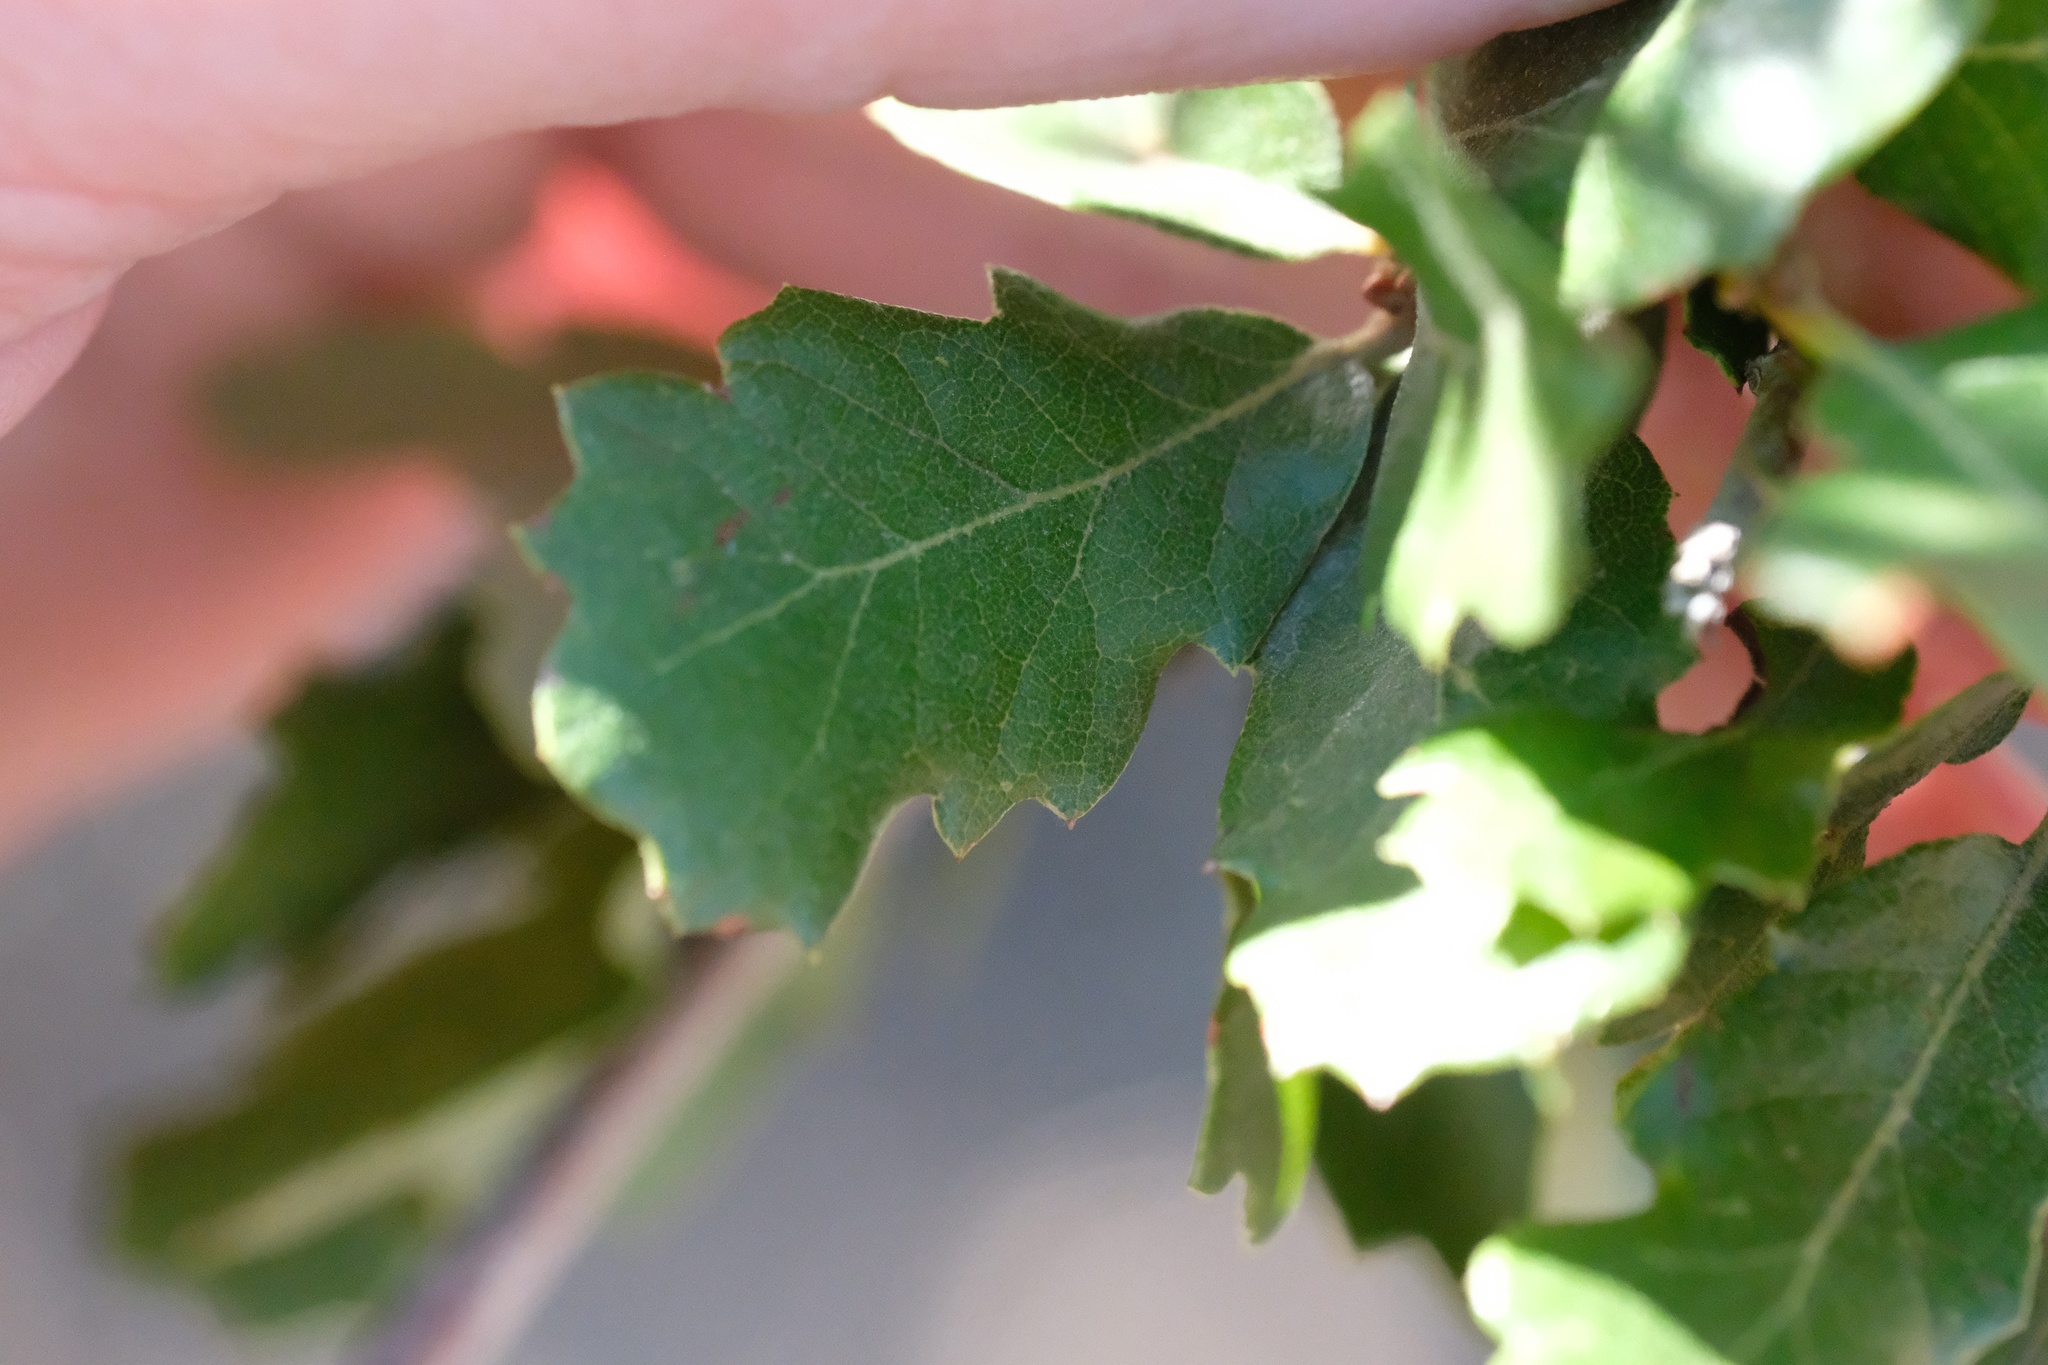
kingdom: Plantae
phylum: Tracheophyta
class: Magnoliopsida
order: Fagales
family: Fagaceae
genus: Quercus
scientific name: Quercus berberidifolia
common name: California scrub oak
